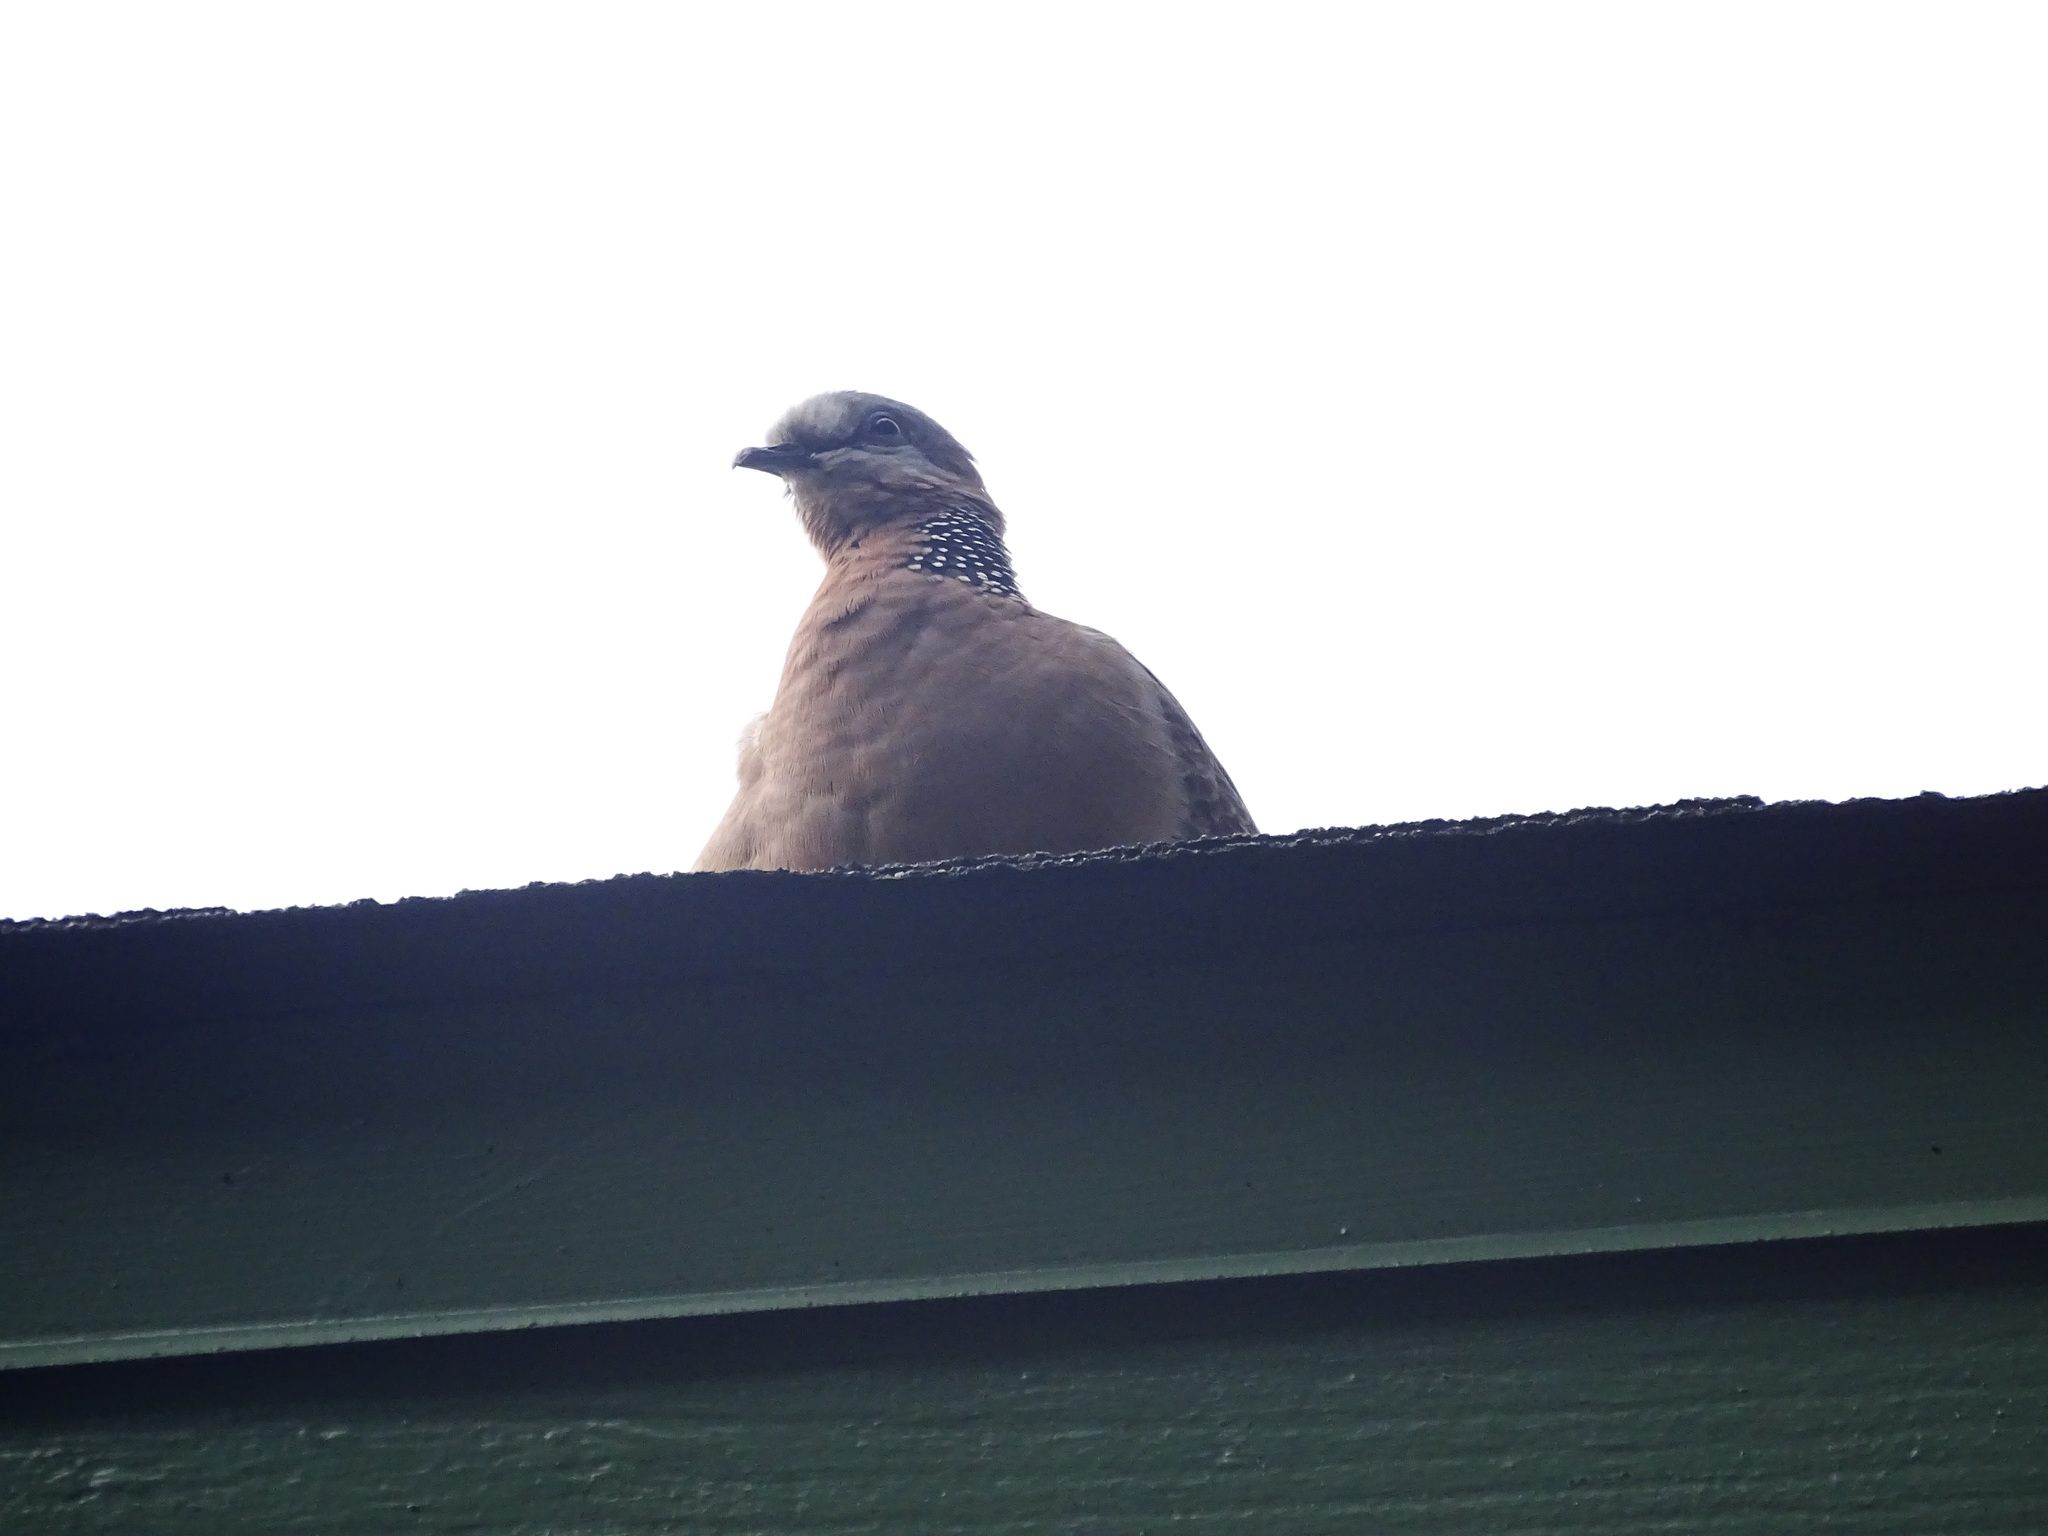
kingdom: Animalia
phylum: Chordata
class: Aves
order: Columbiformes
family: Columbidae
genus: Spilopelia
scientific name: Spilopelia chinensis
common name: Spotted dove
